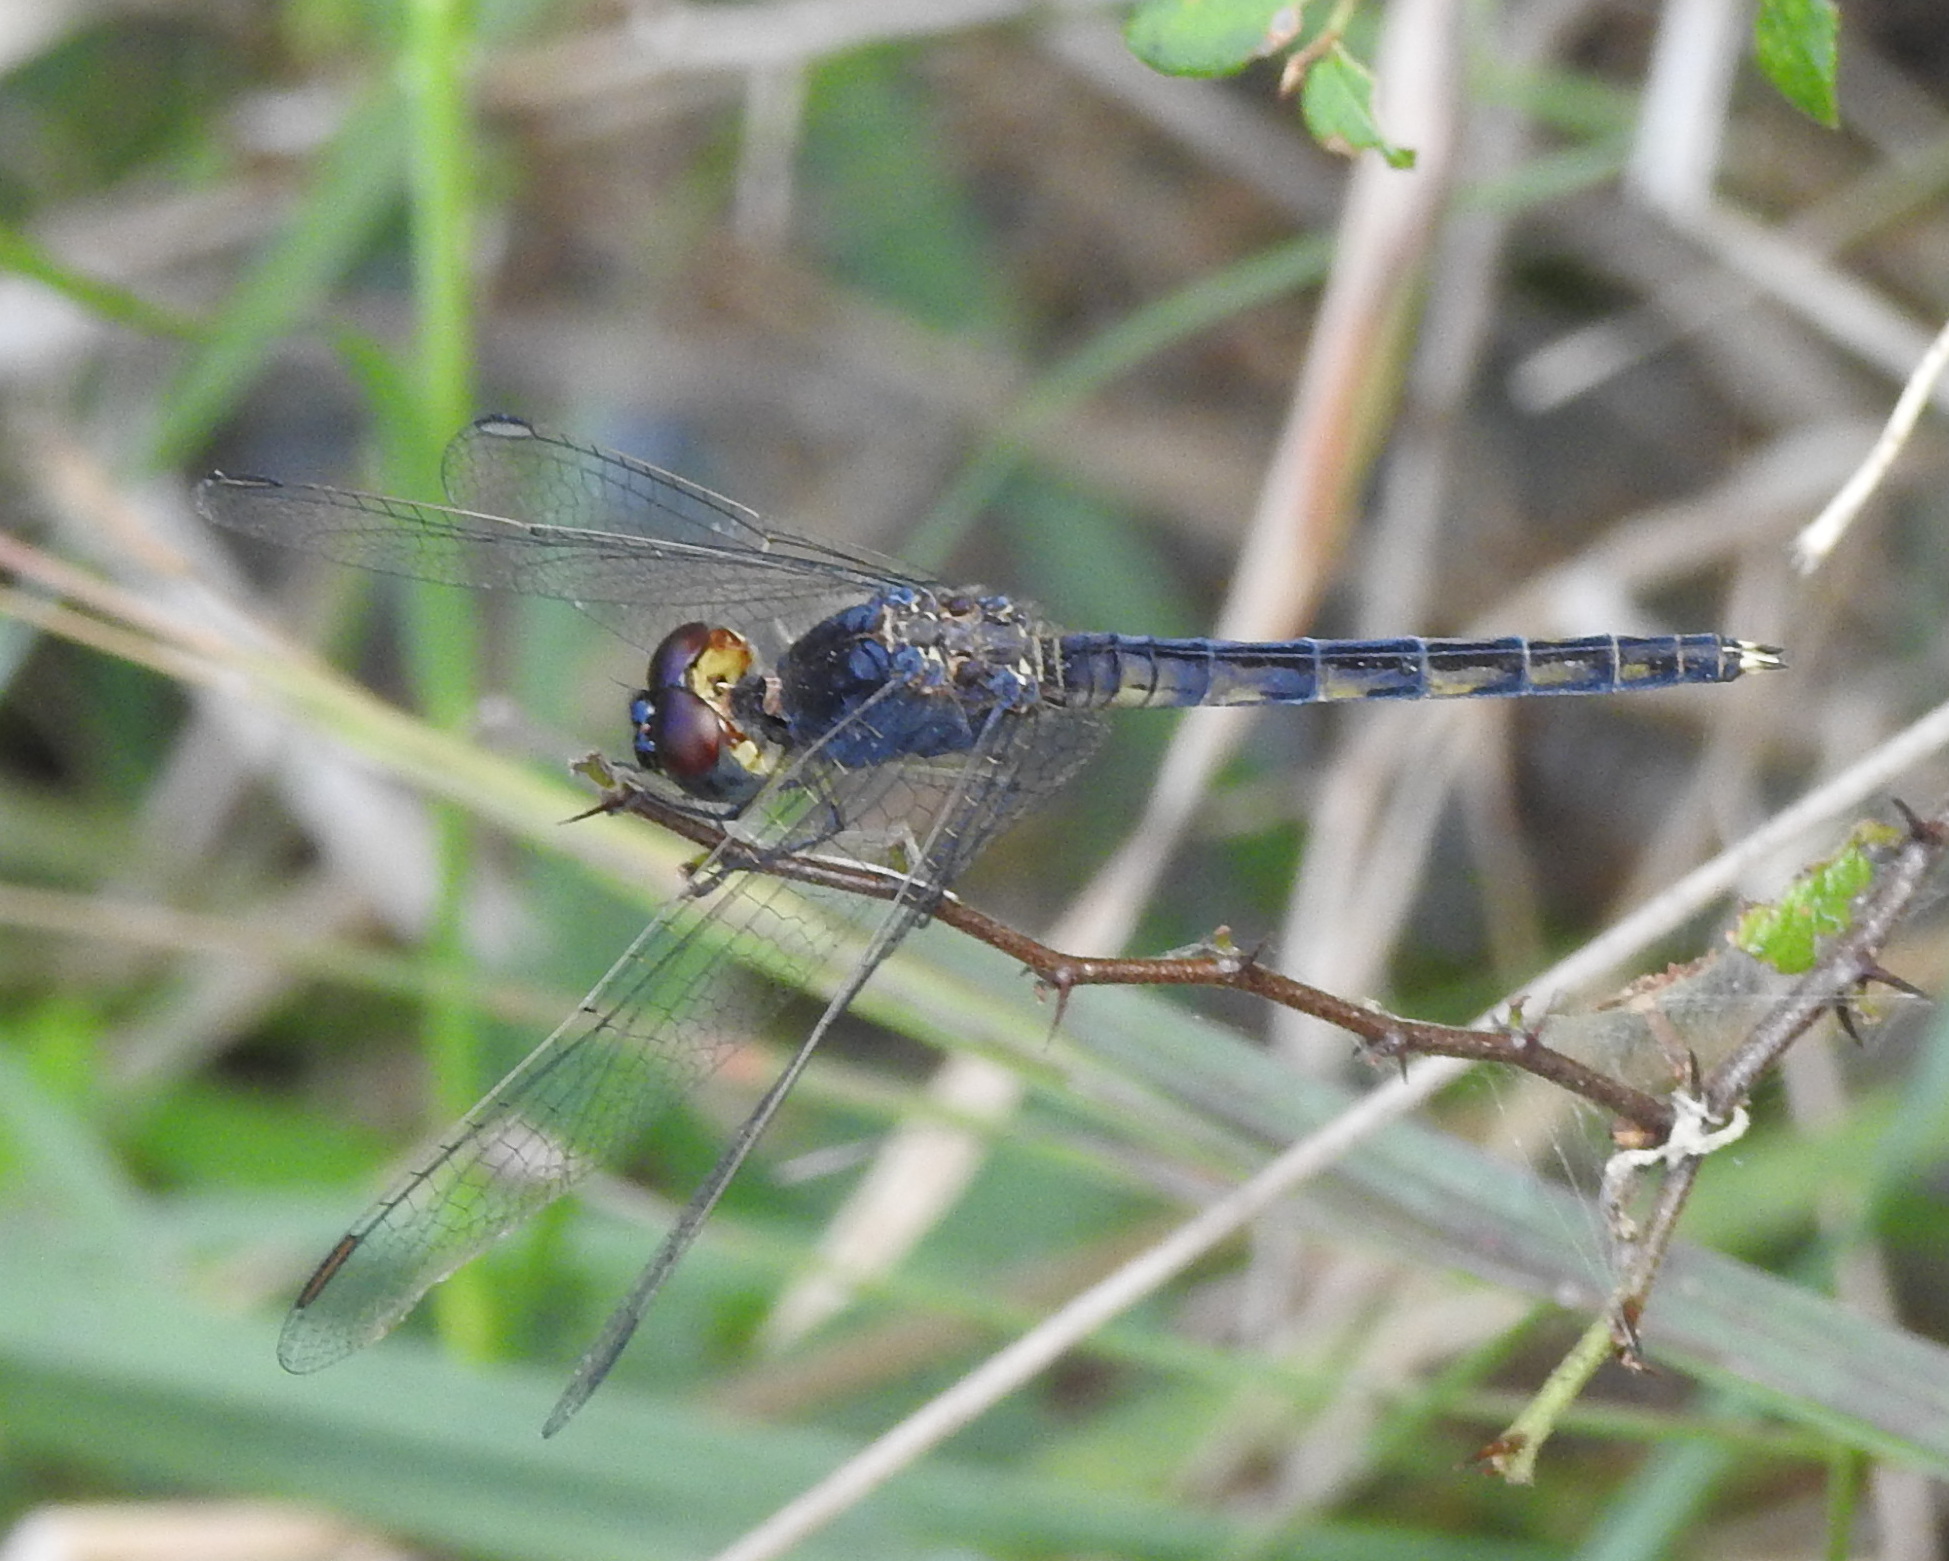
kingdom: Animalia
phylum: Arthropoda
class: Insecta
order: Odonata
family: Libellulidae
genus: Indothemis
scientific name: Indothemis carnatica
